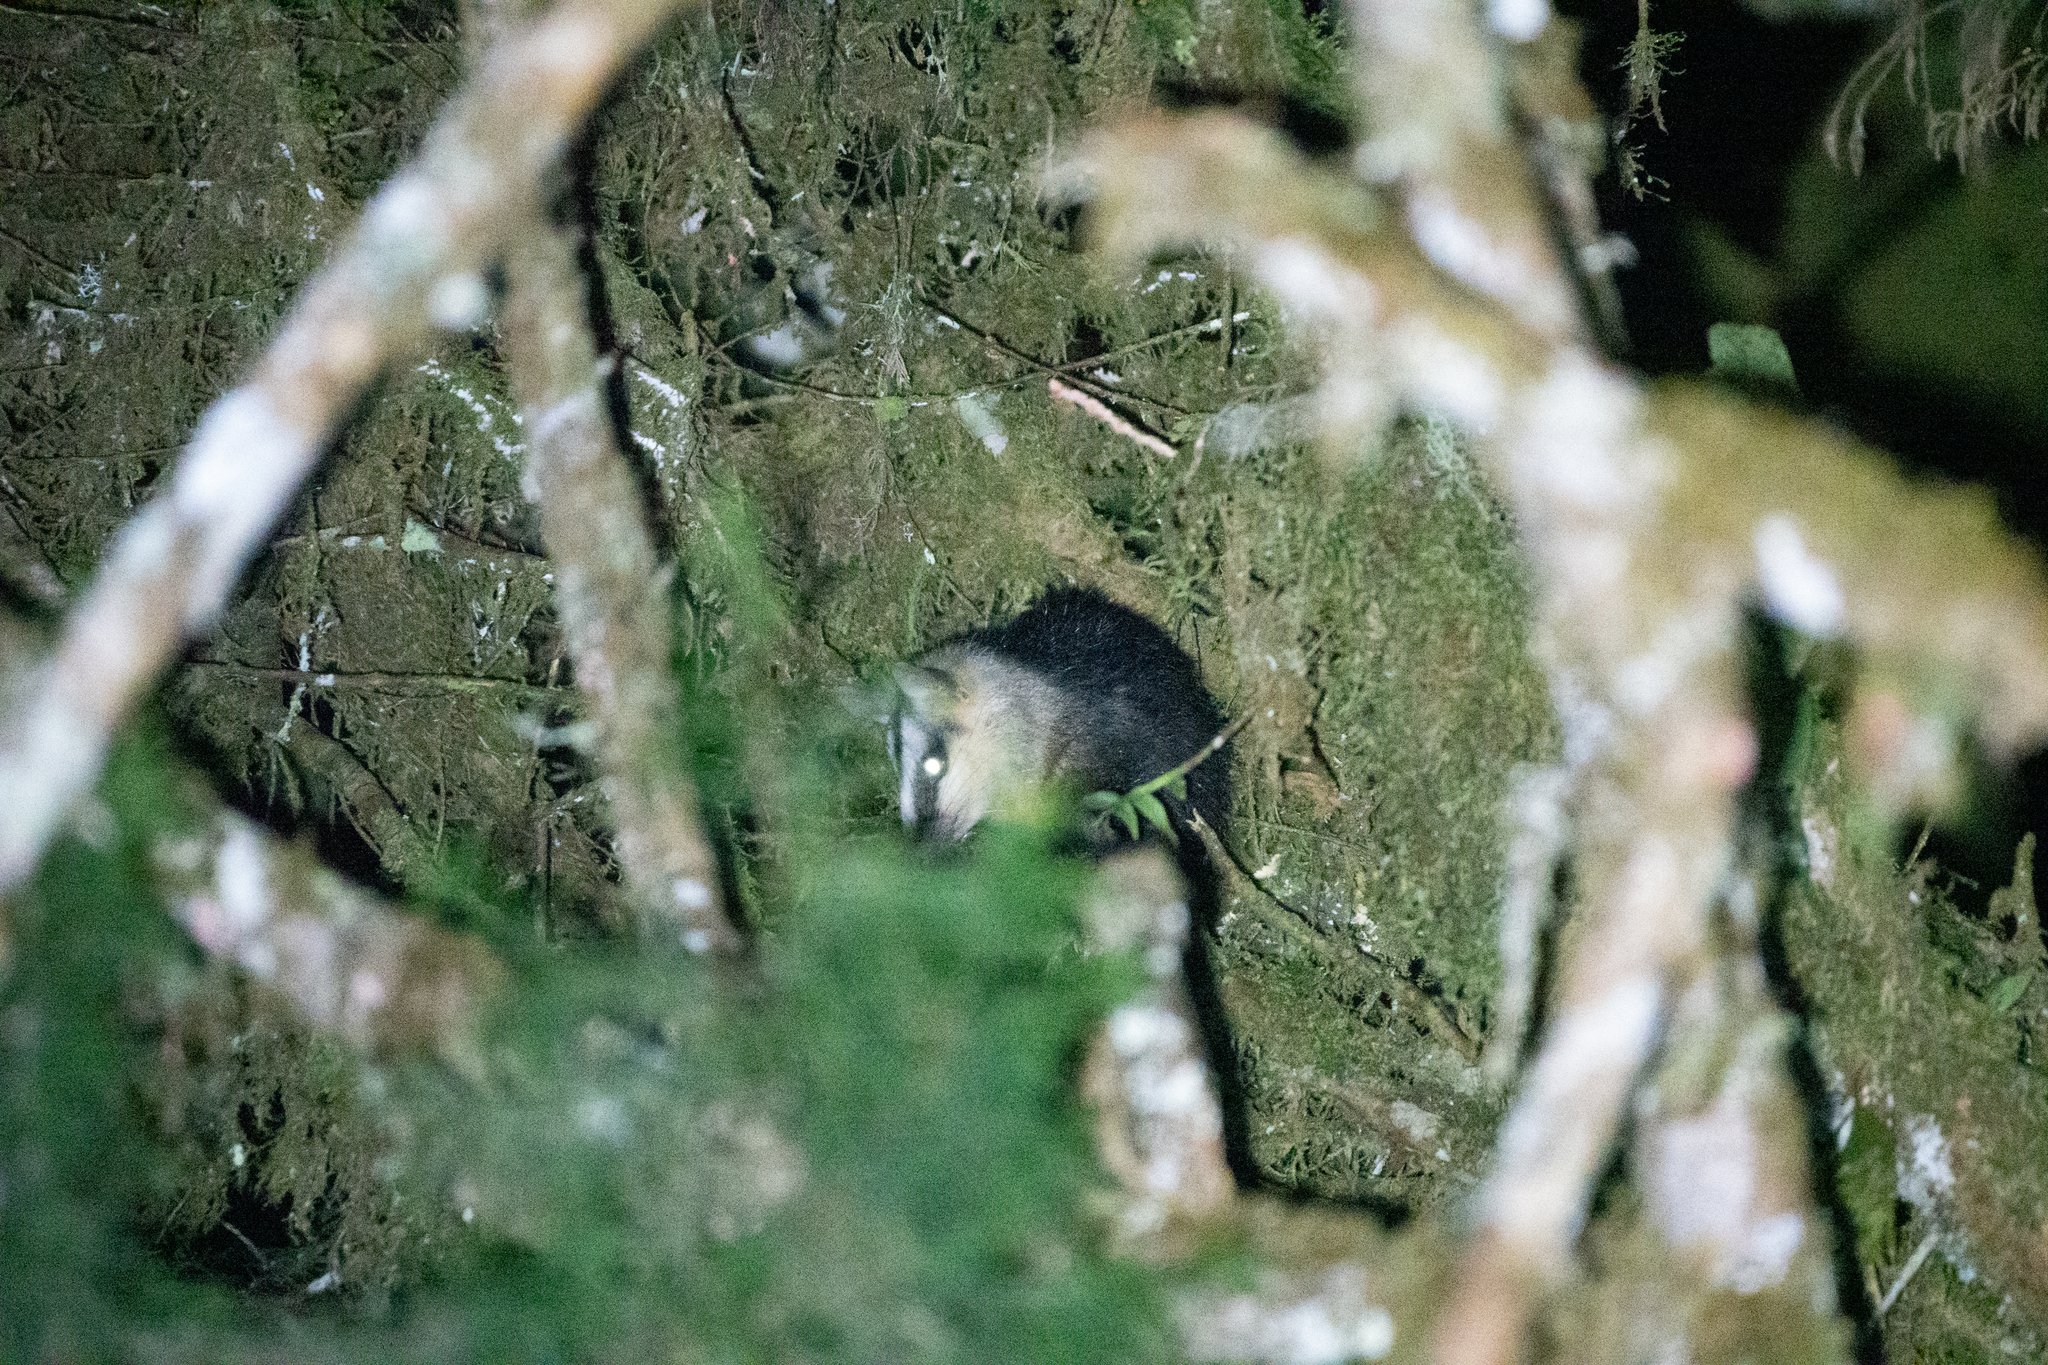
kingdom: Animalia
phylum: Chordata
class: Mammalia
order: Didelphimorphia
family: Didelphidae
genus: Didelphis
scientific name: Didelphis pernigra
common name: Andean white-eared opossum
